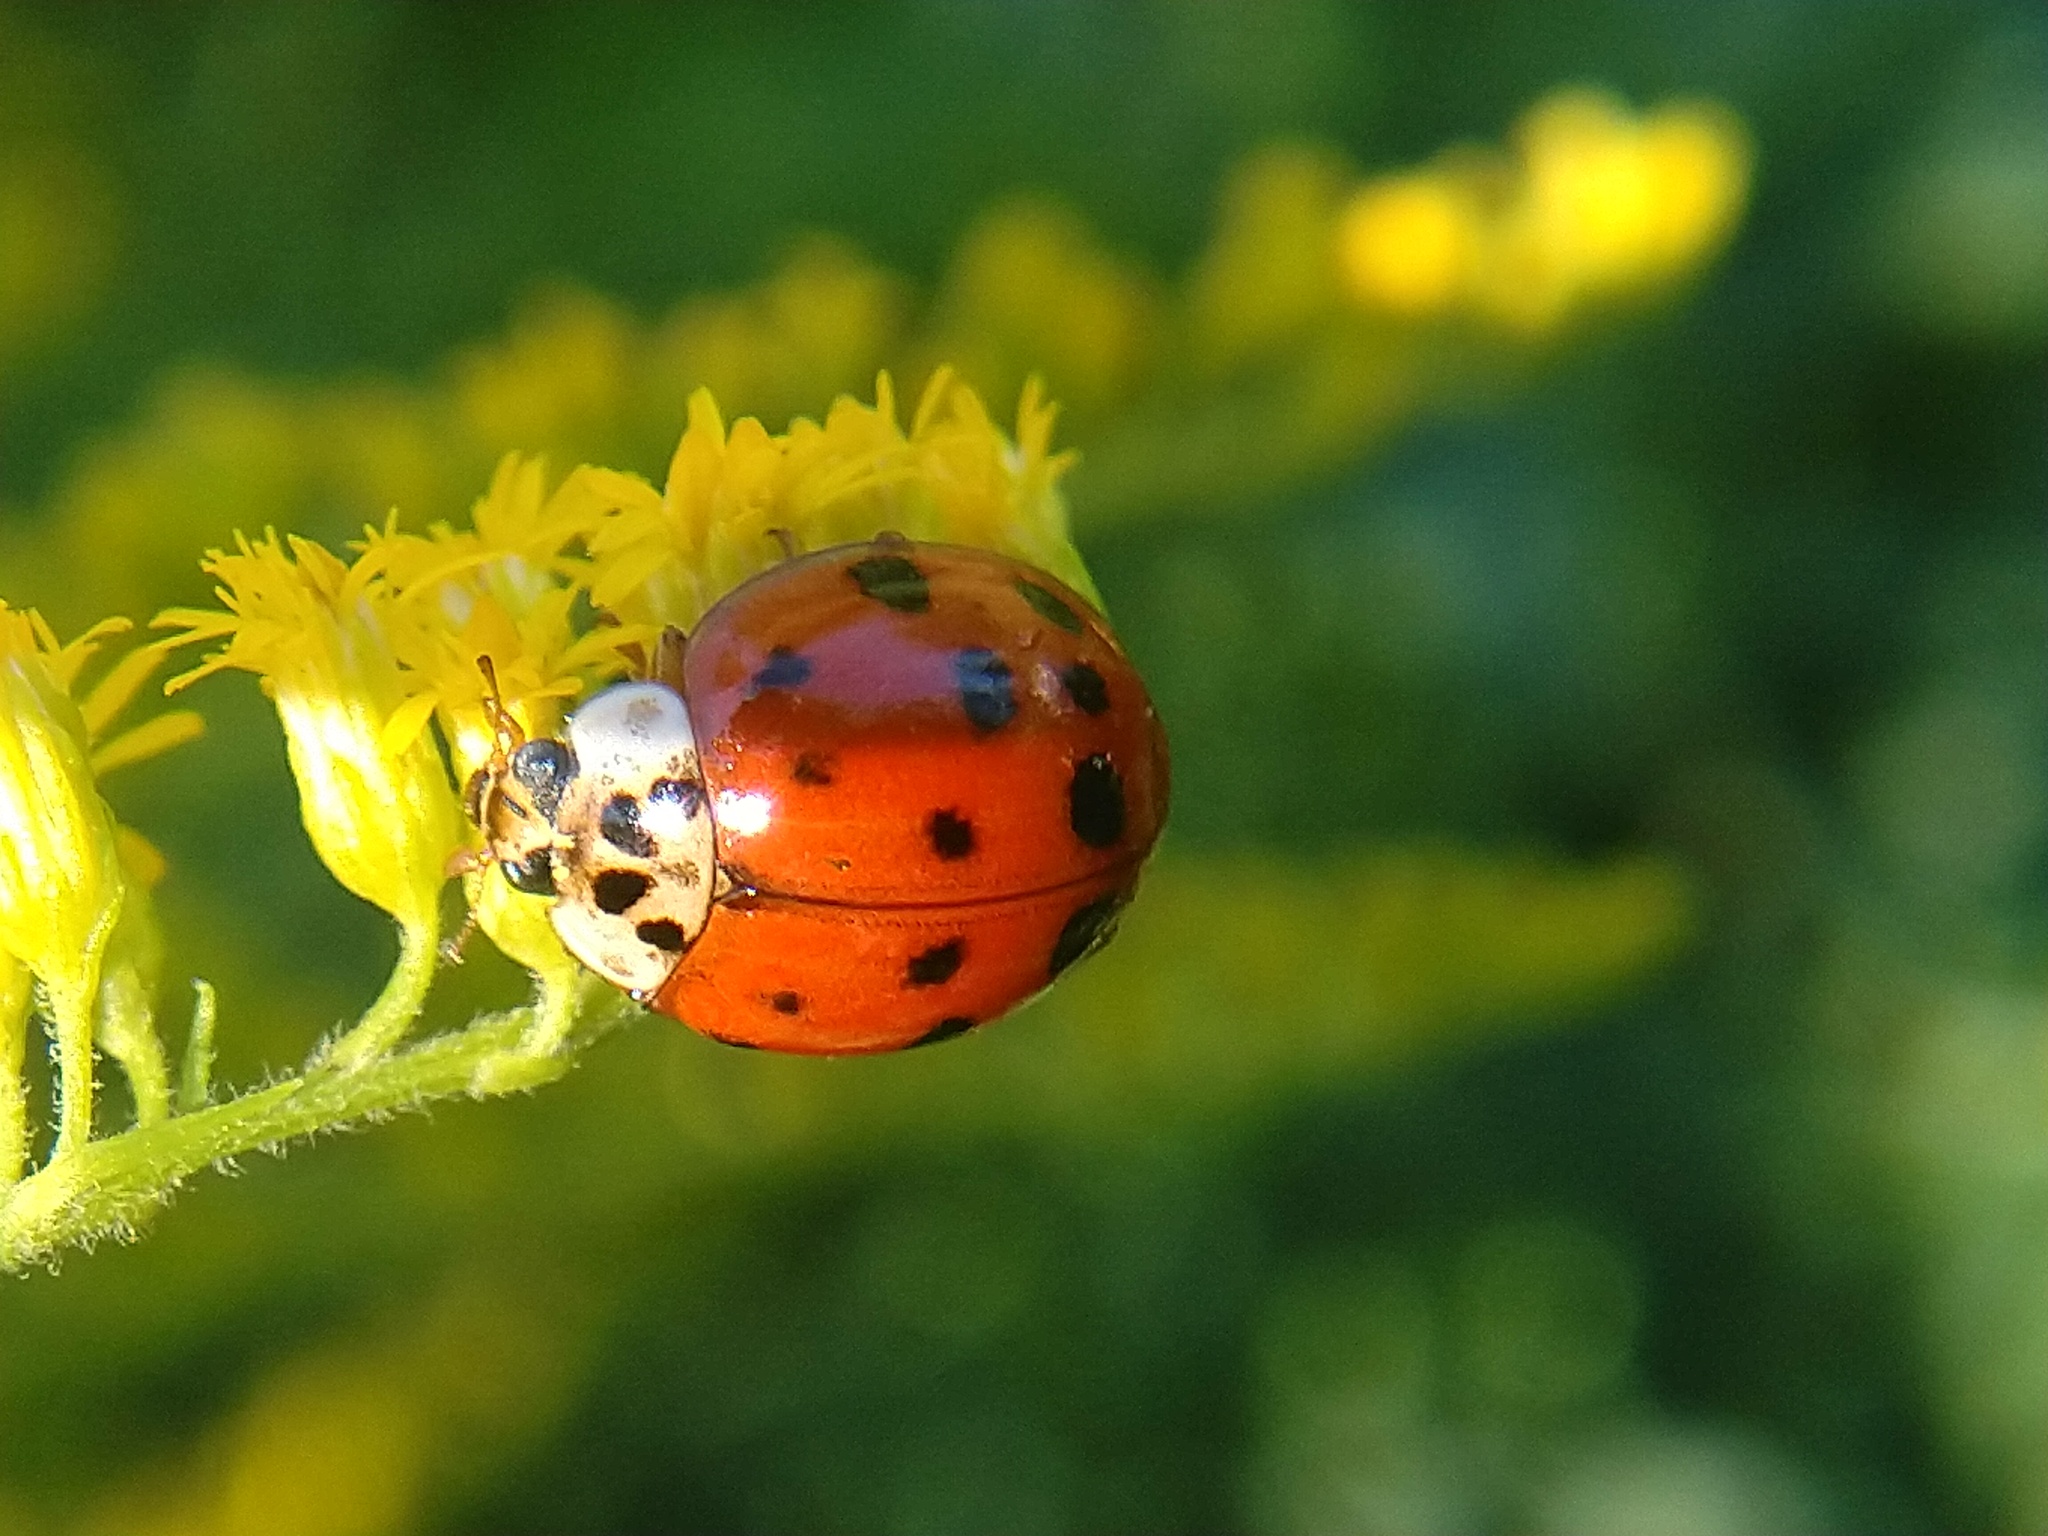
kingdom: Animalia
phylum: Arthropoda
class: Insecta
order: Coleoptera
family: Coccinellidae
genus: Harmonia
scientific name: Harmonia axyridis
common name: Harlequin ladybird
